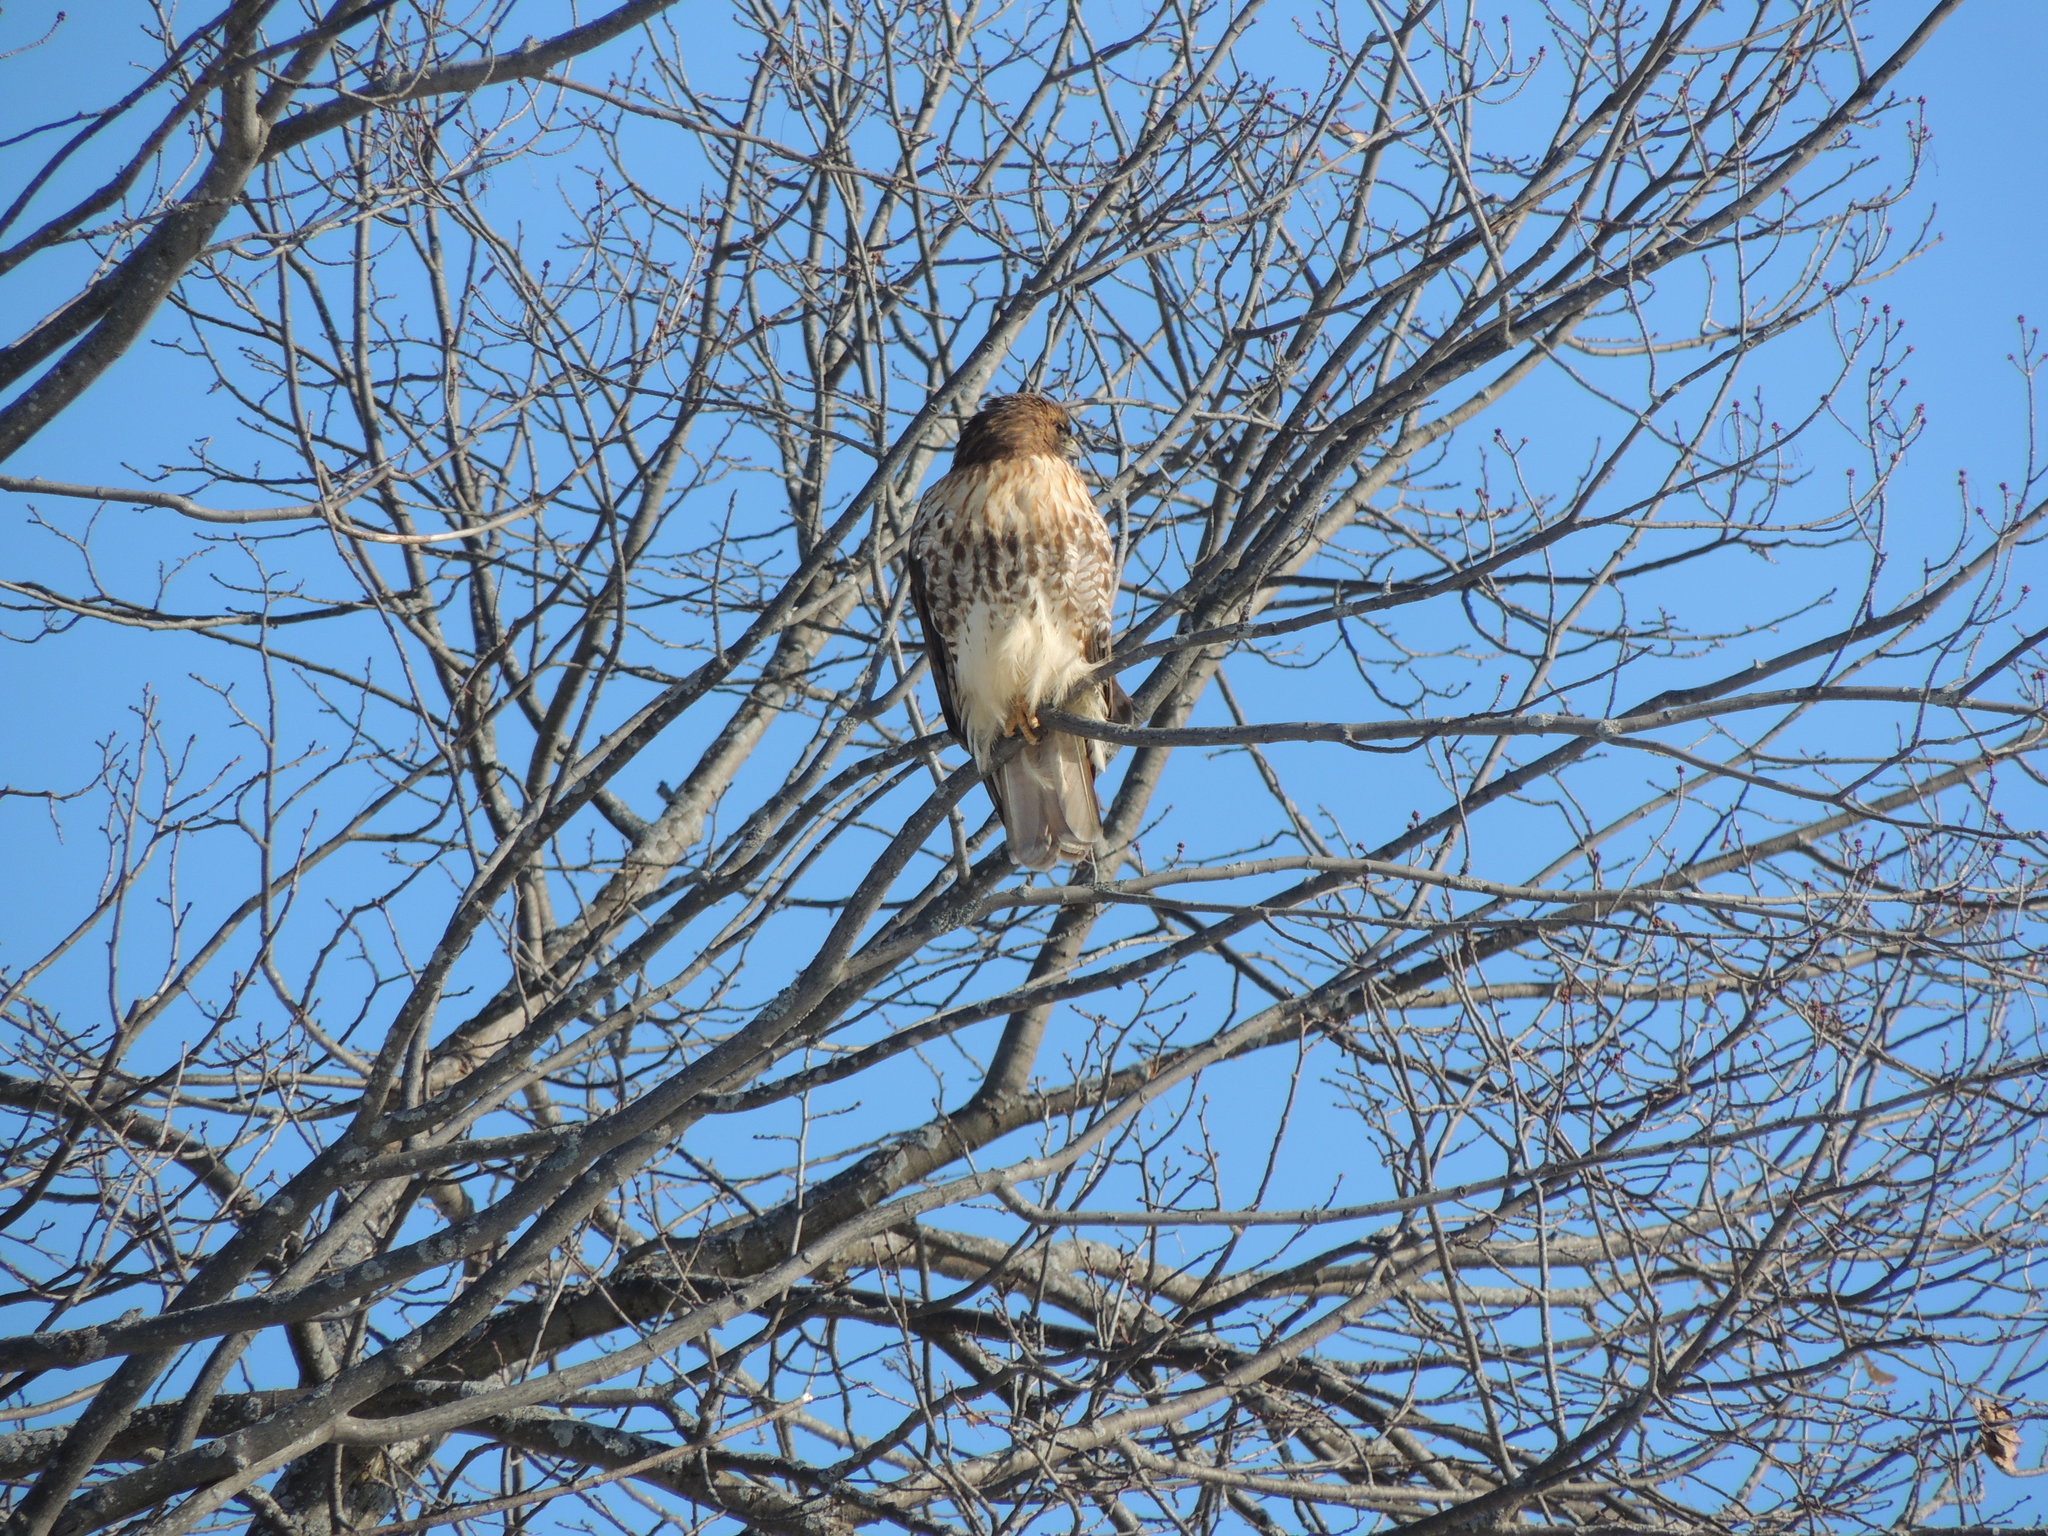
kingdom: Animalia
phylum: Chordata
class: Aves
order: Accipitriformes
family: Accipitridae
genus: Buteo
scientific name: Buteo jamaicensis
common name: Red-tailed hawk
